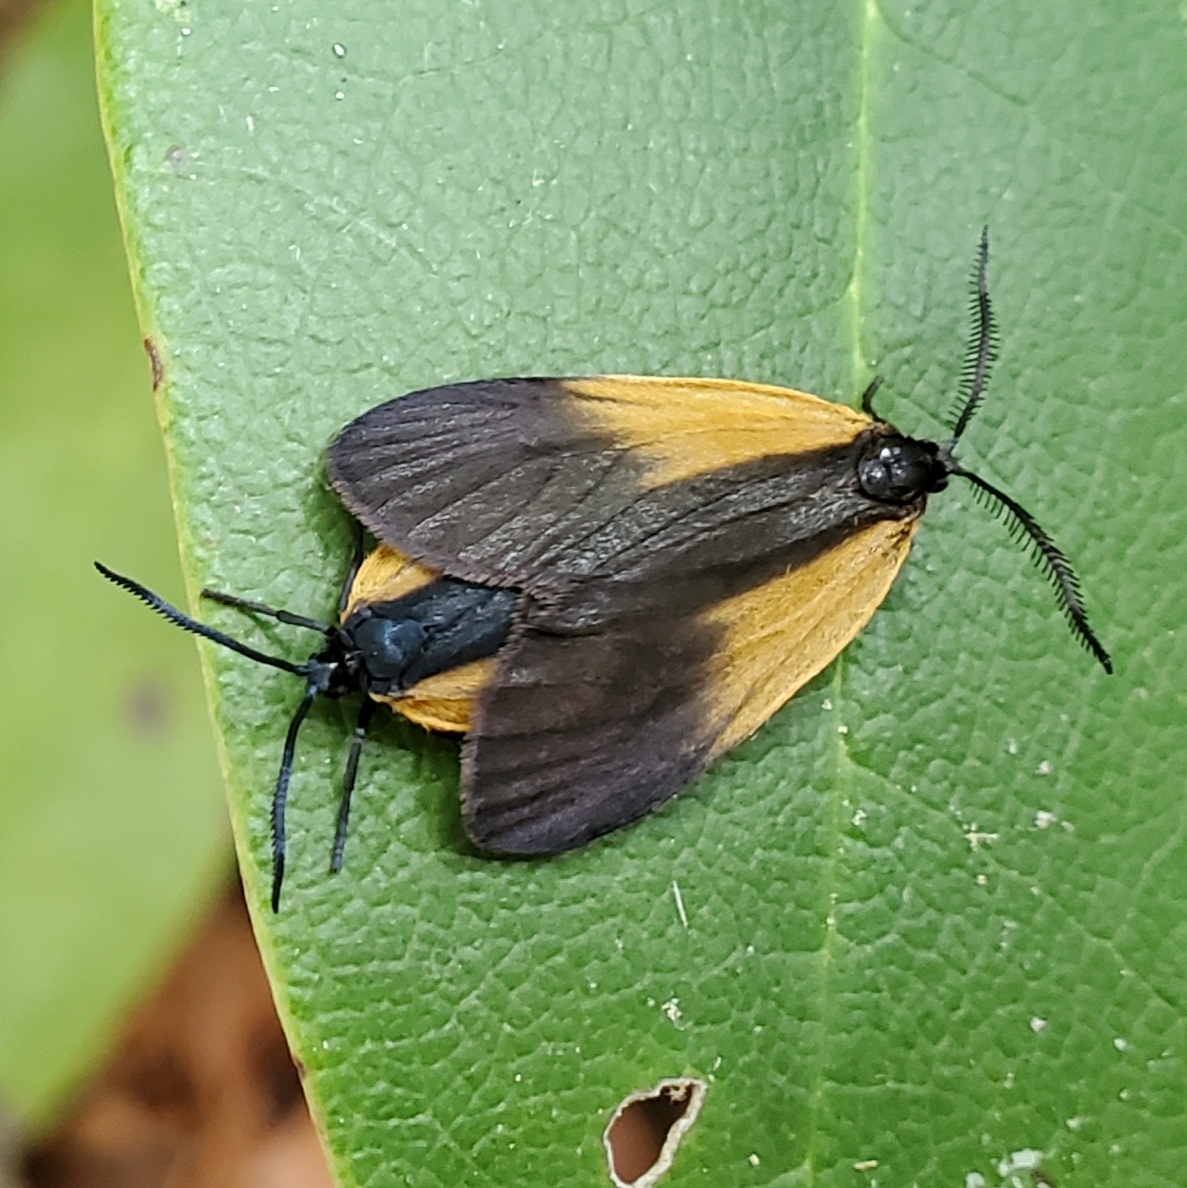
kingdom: Animalia
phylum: Arthropoda
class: Insecta
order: Lepidoptera
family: Zygaenidae
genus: Malthaca
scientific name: Malthaca dimidiata
